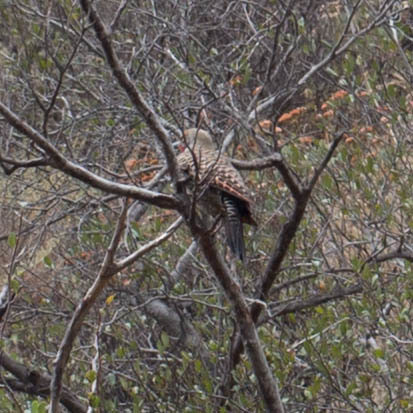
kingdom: Animalia
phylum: Chordata
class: Aves
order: Piciformes
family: Picidae
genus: Colaptes
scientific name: Colaptes auratus
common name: Northern flicker
